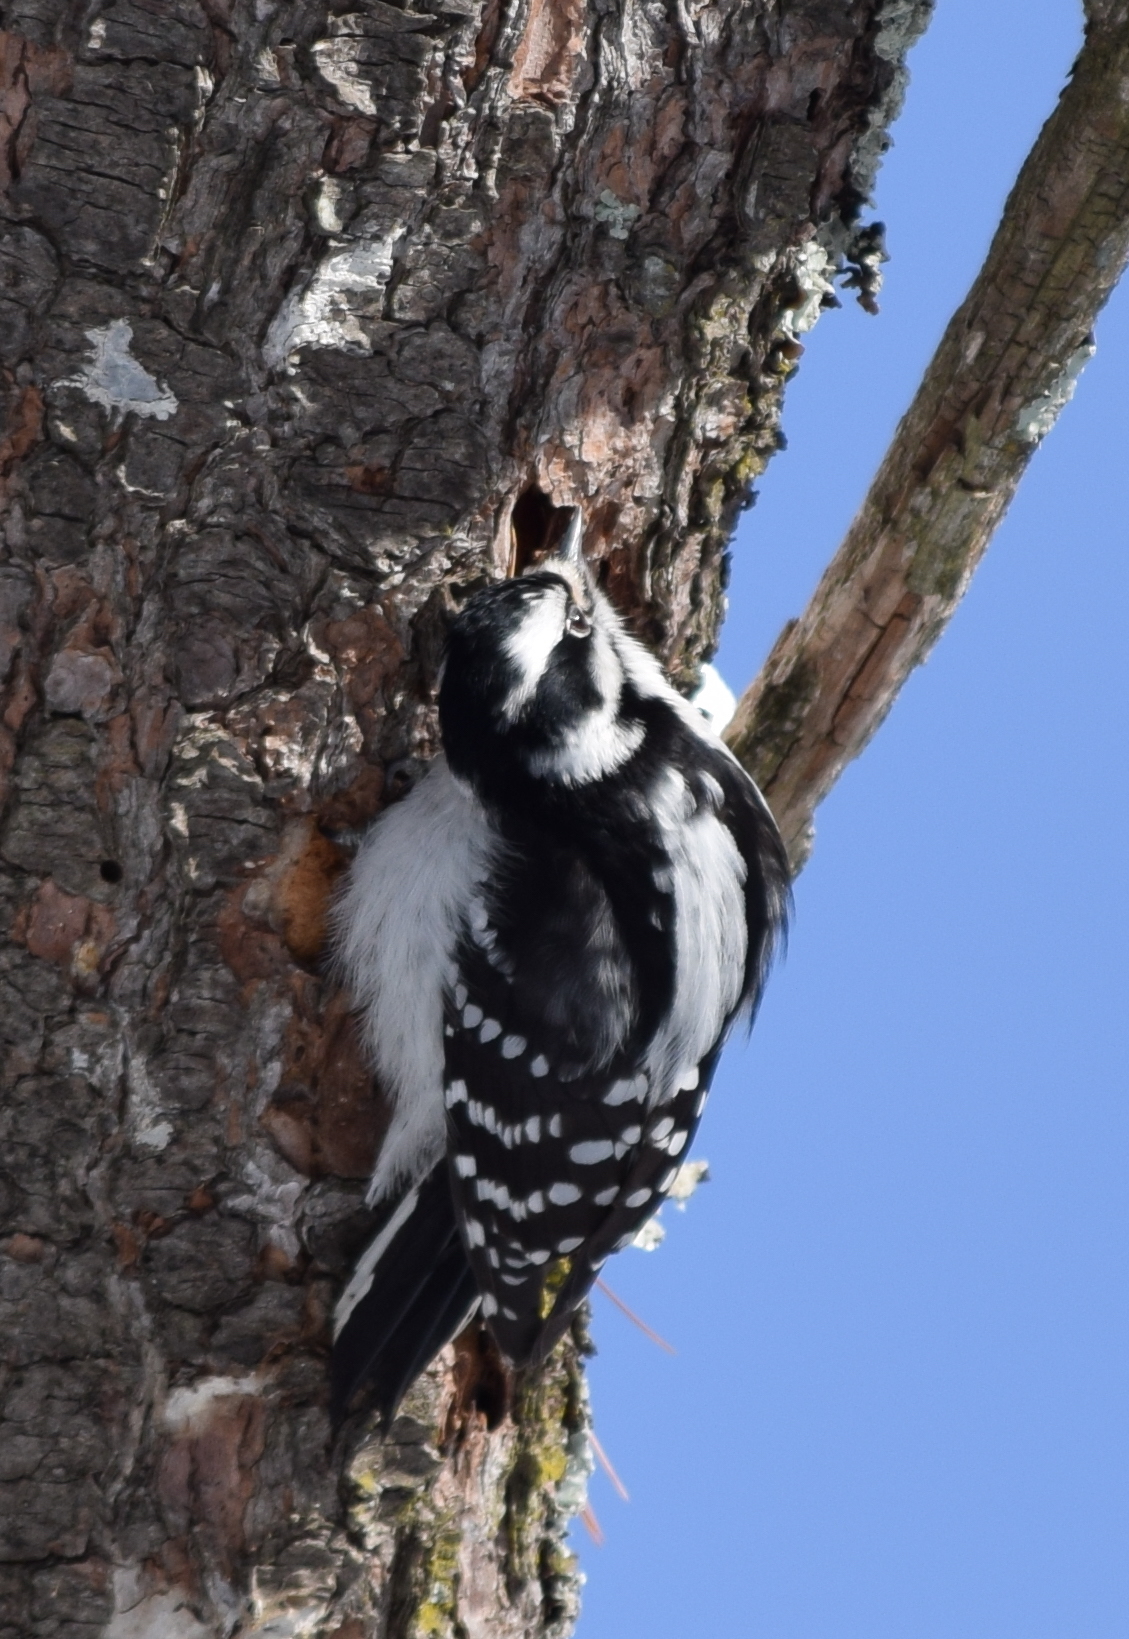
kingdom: Animalia
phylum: Chordata
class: Aves
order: Piciformes
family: Picidae
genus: Dryobates
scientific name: Dryobates pubescens
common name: Downy woodpecker
